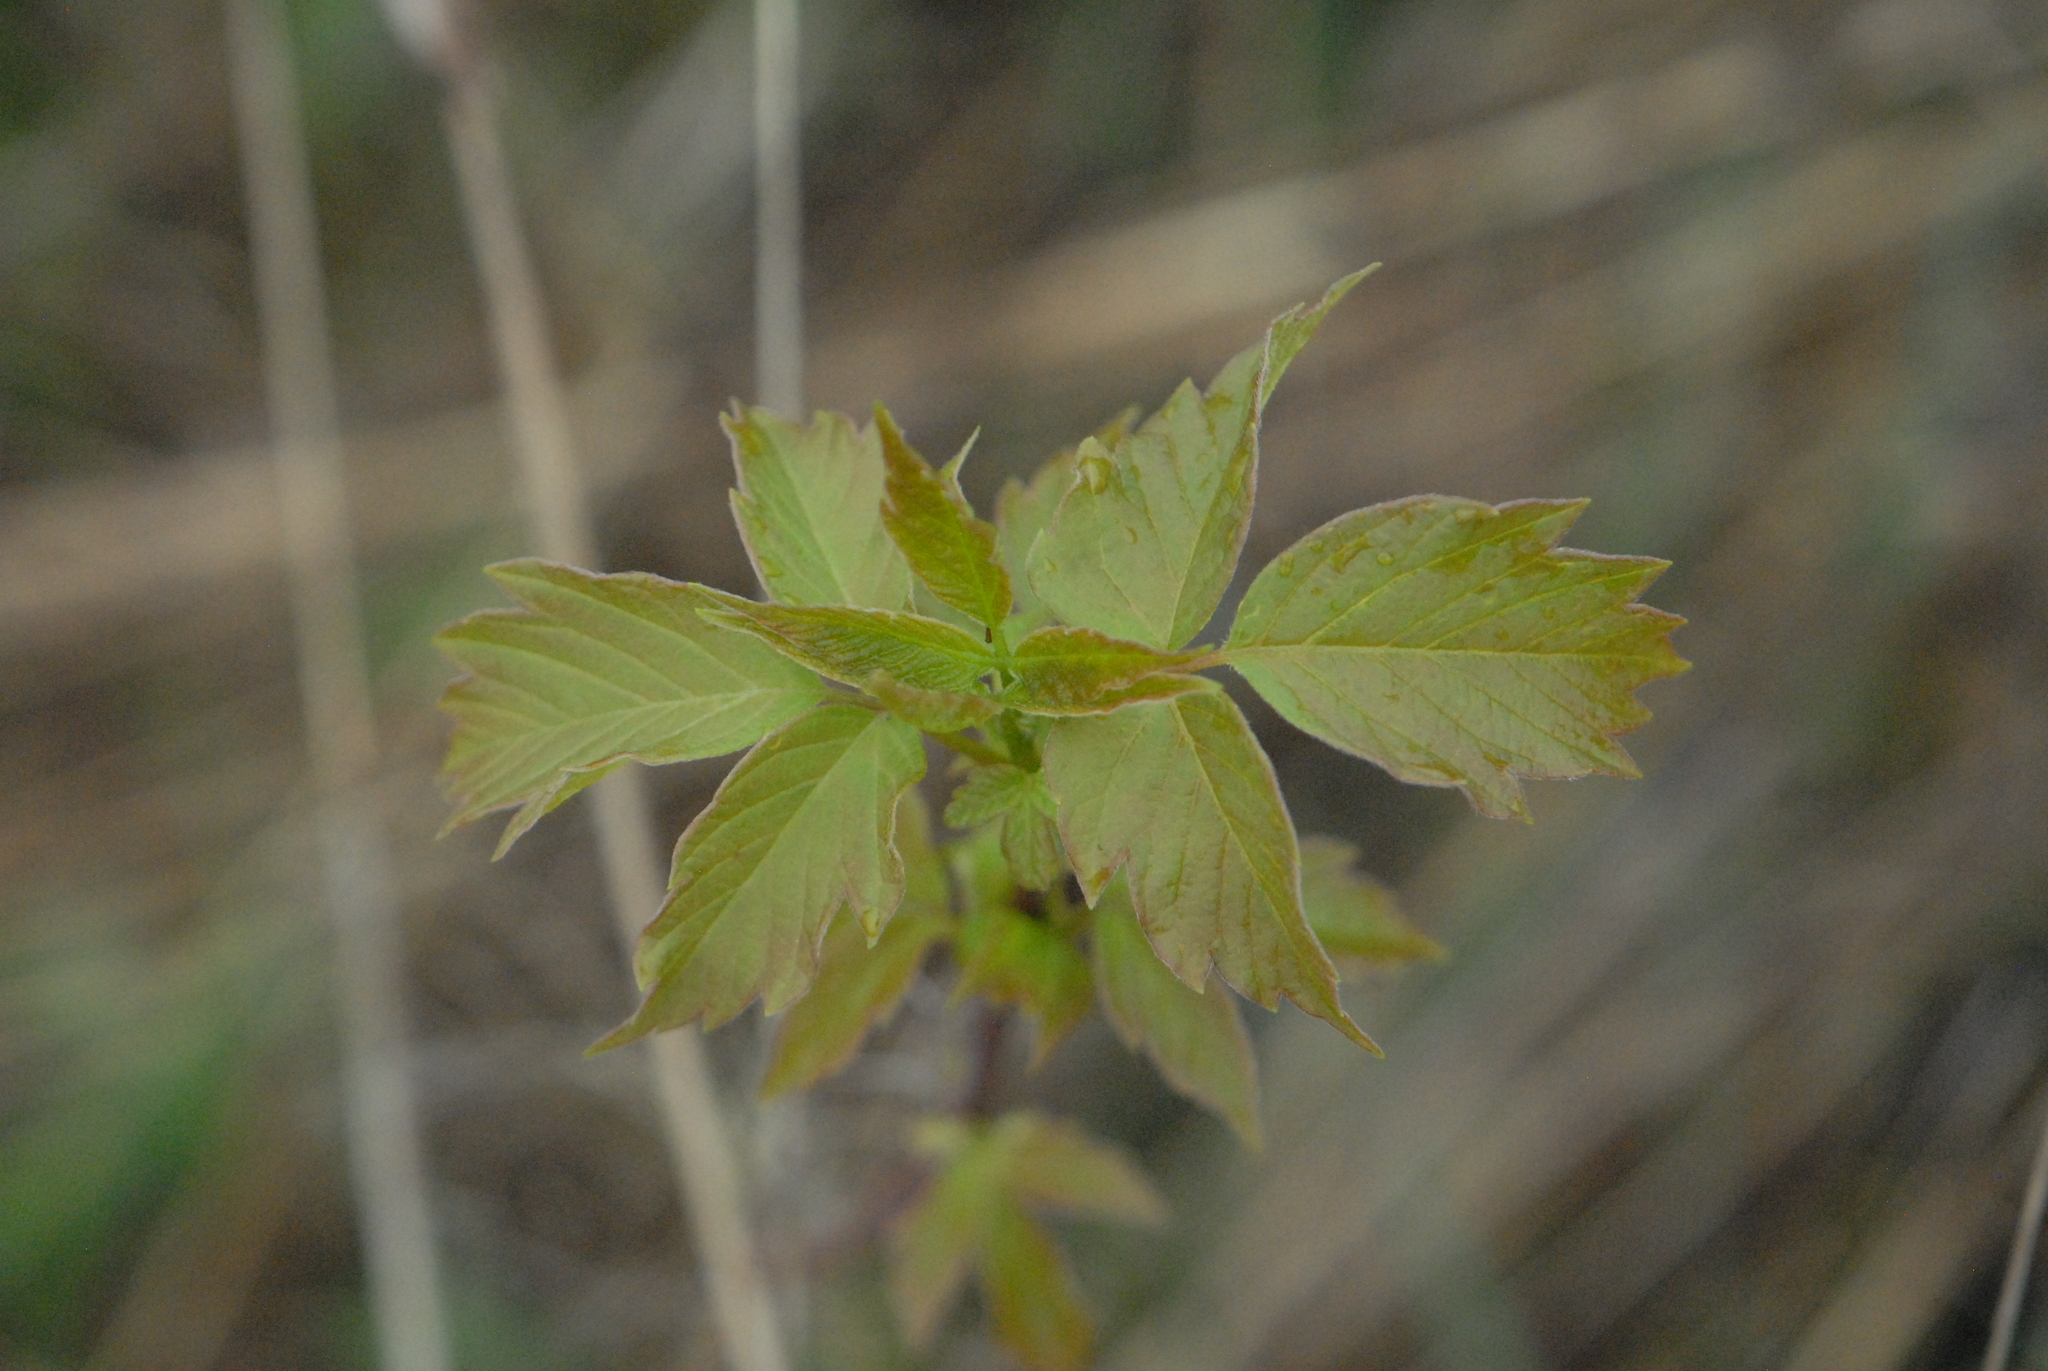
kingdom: Plantae
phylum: Tracheophyta
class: Magnoliopsida
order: Sapindales
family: Sapindaceae
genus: Acer
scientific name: Acer negundo
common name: Ashleaf maple
